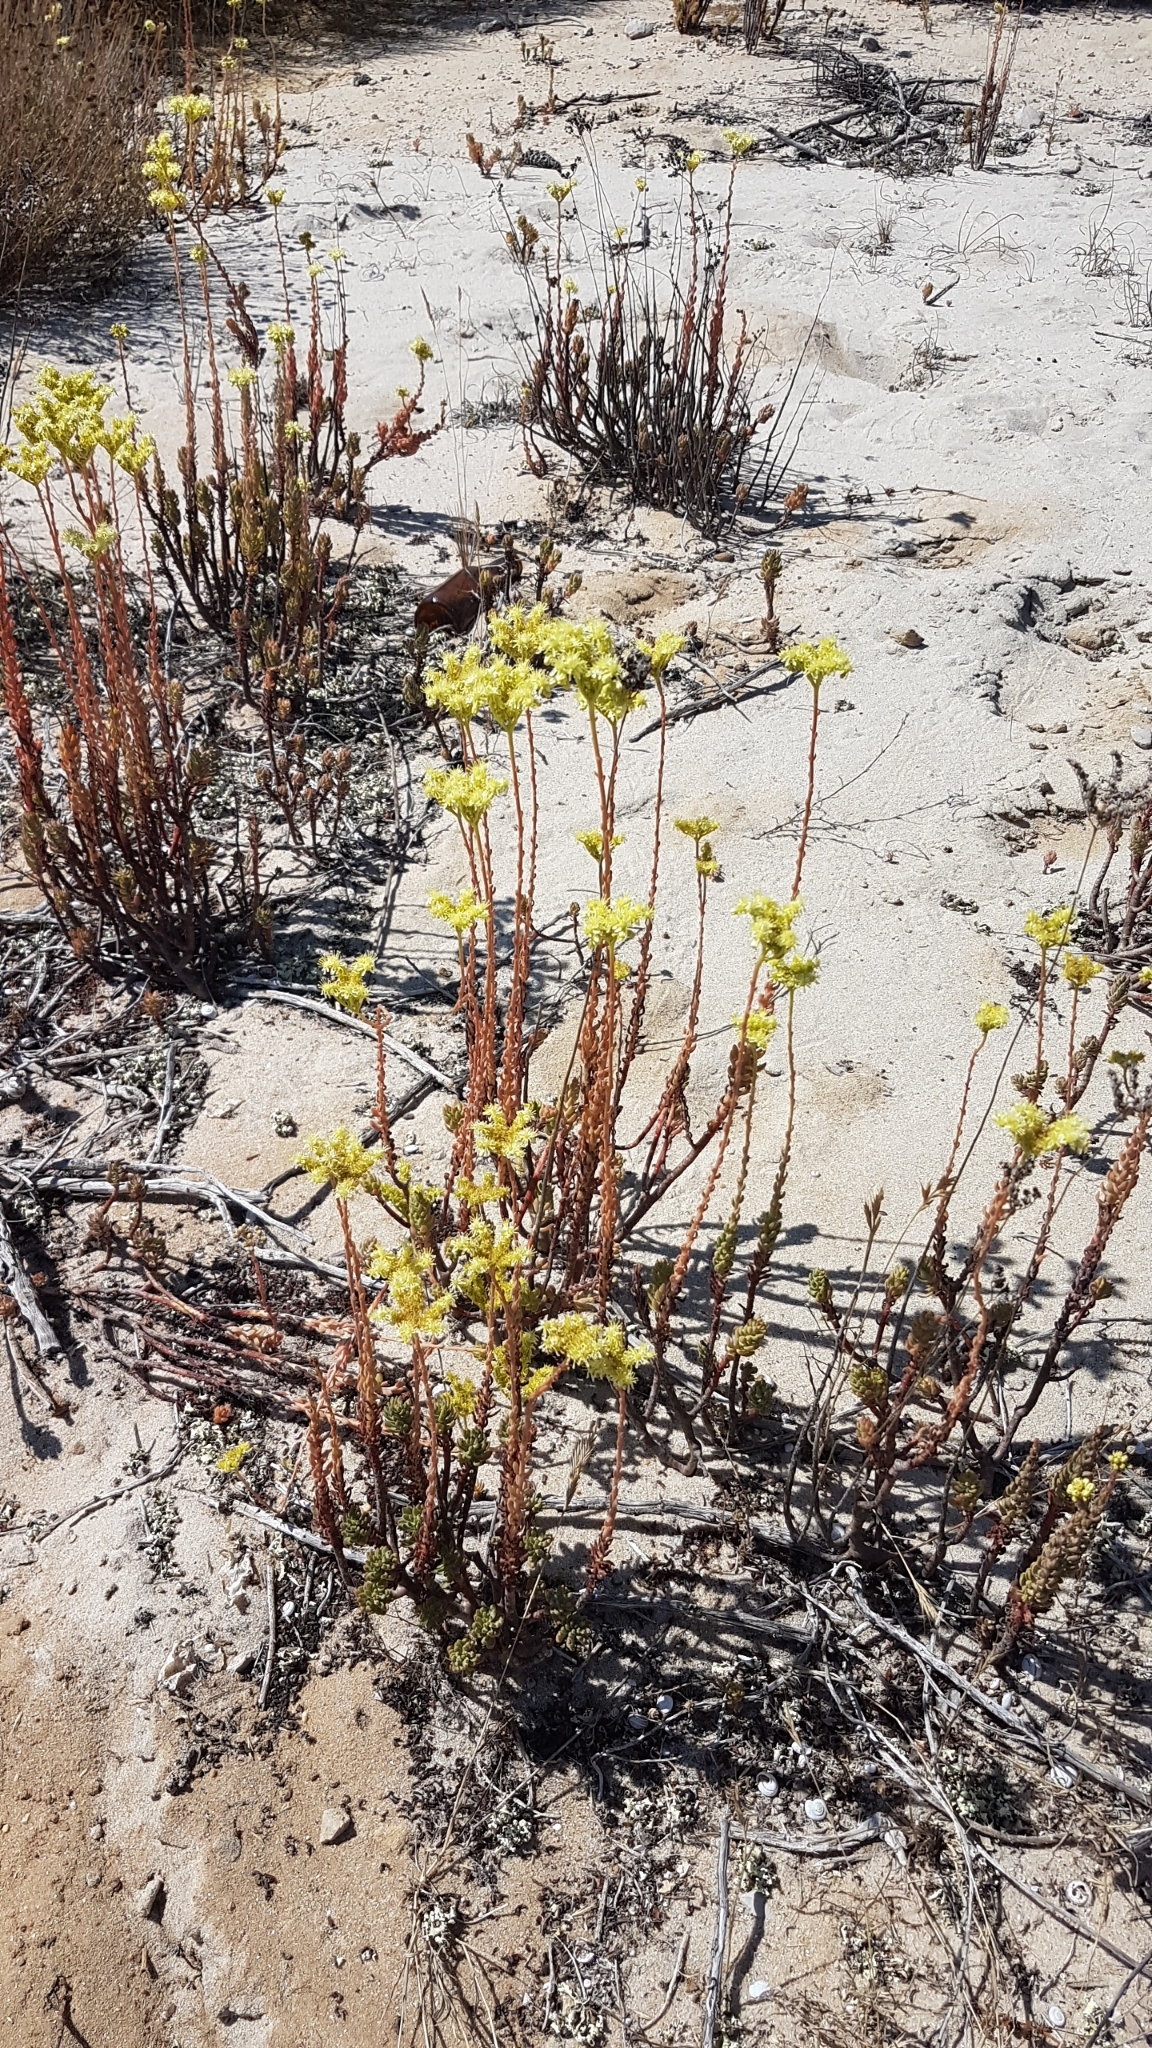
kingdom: Plantae
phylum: Tracheophyta
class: Magnoliopsida
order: Saxifragales
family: Crassulaceae
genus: Petrosedum
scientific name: Petrosedum sediforme
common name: Pale stonecrop
